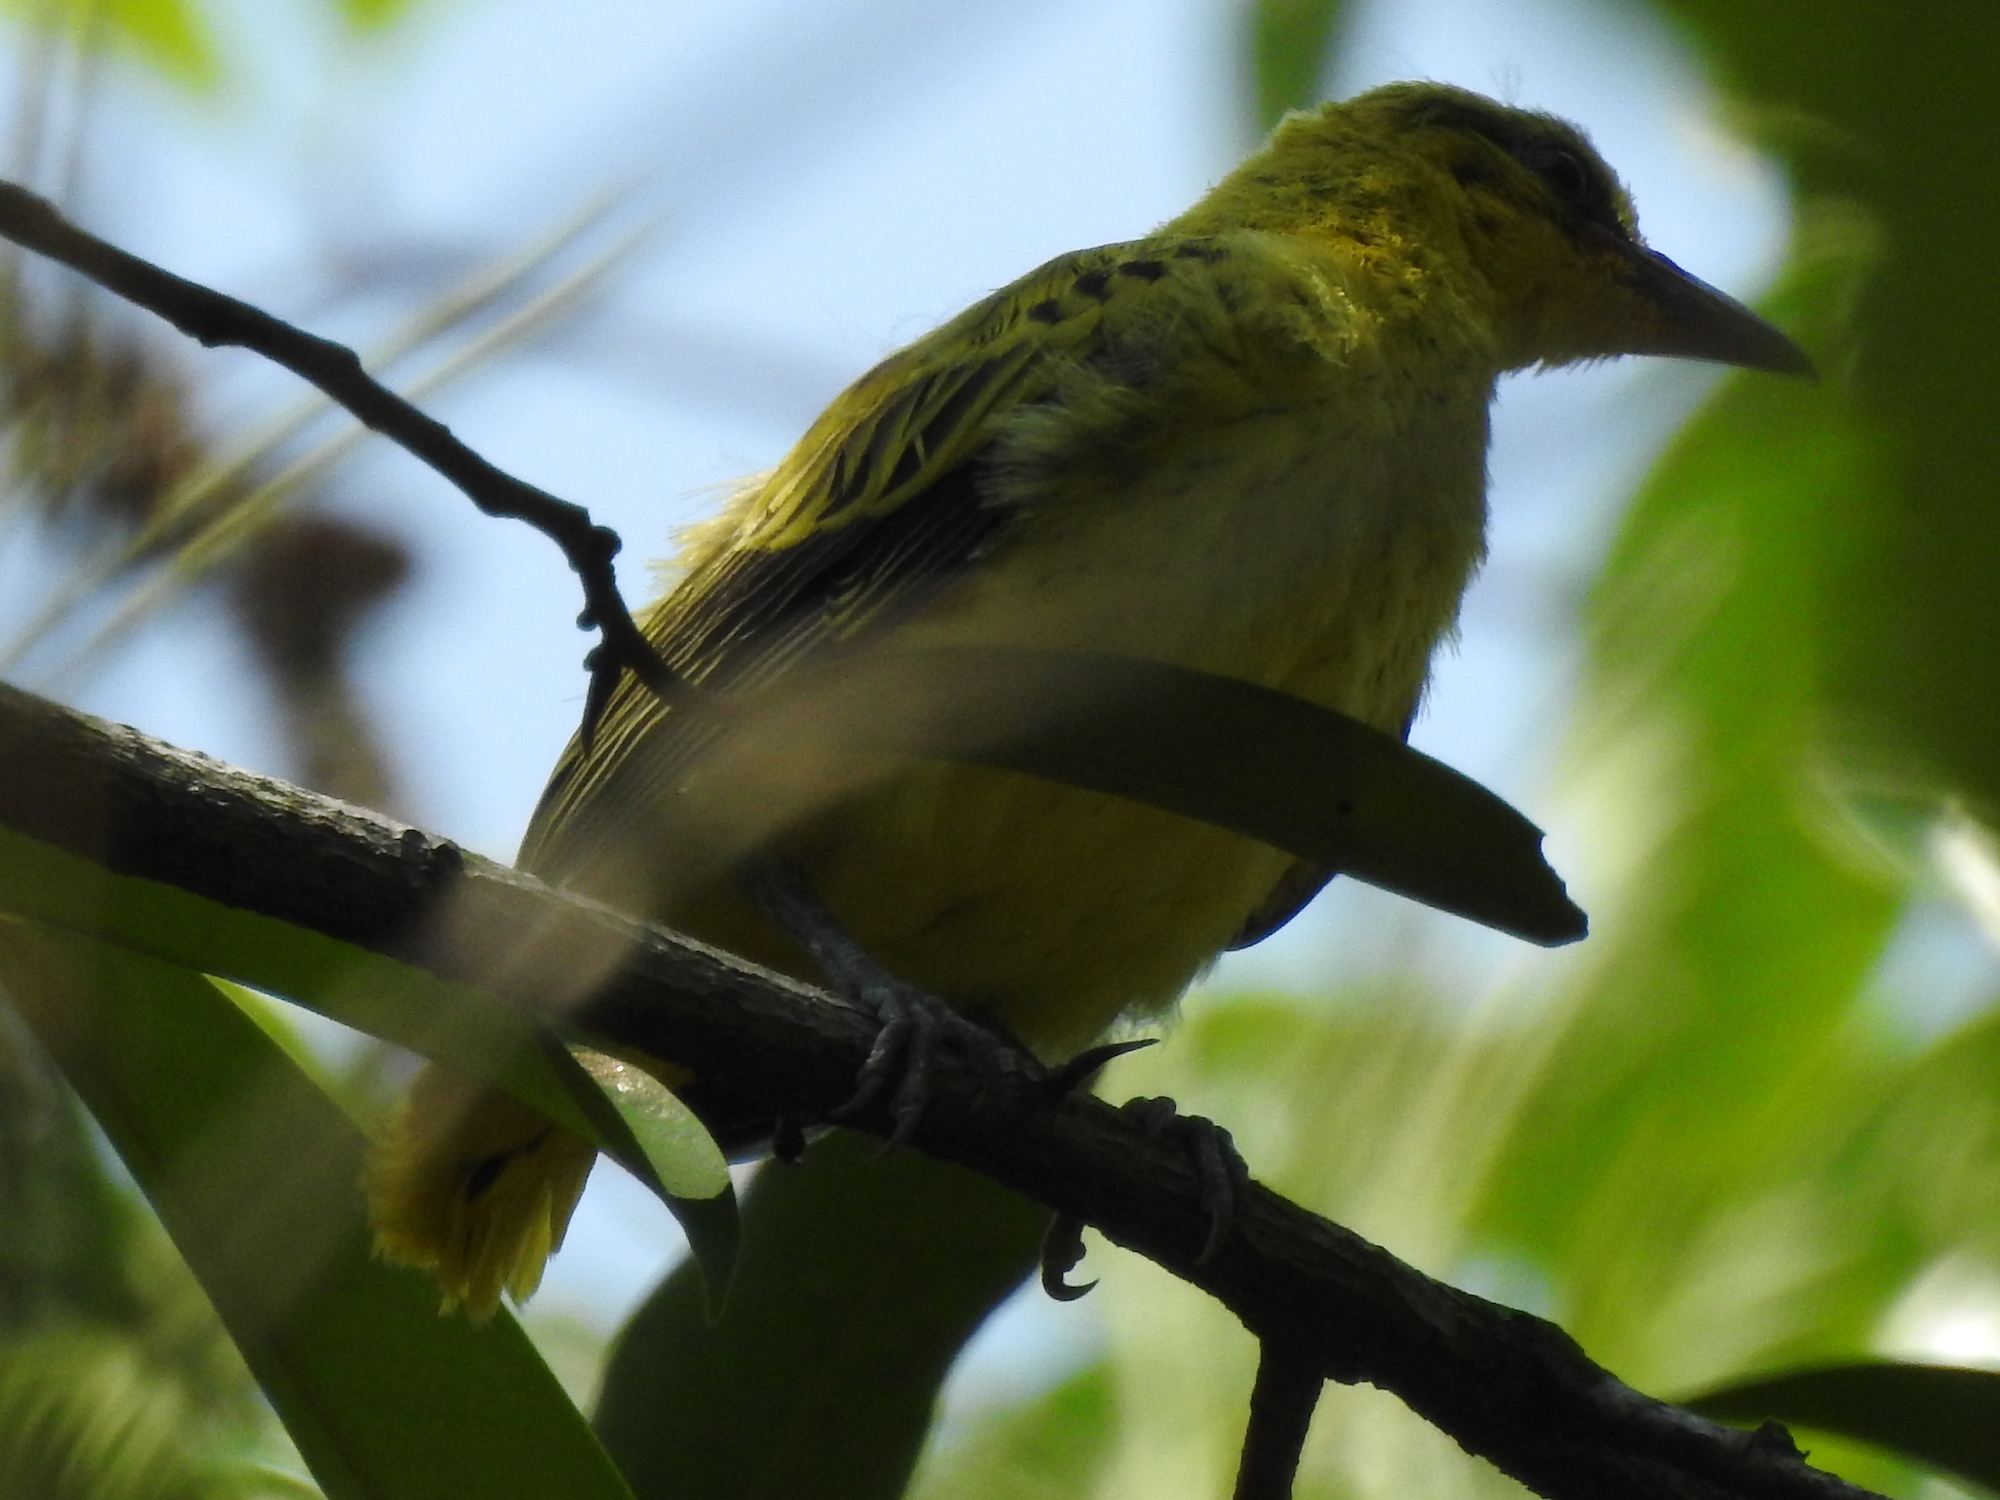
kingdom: Animalia
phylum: Chordata
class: Aves
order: Passeriformes
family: Oriolidae
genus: Oriolus
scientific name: Oriolus chinensis
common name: Black-naped oriole
